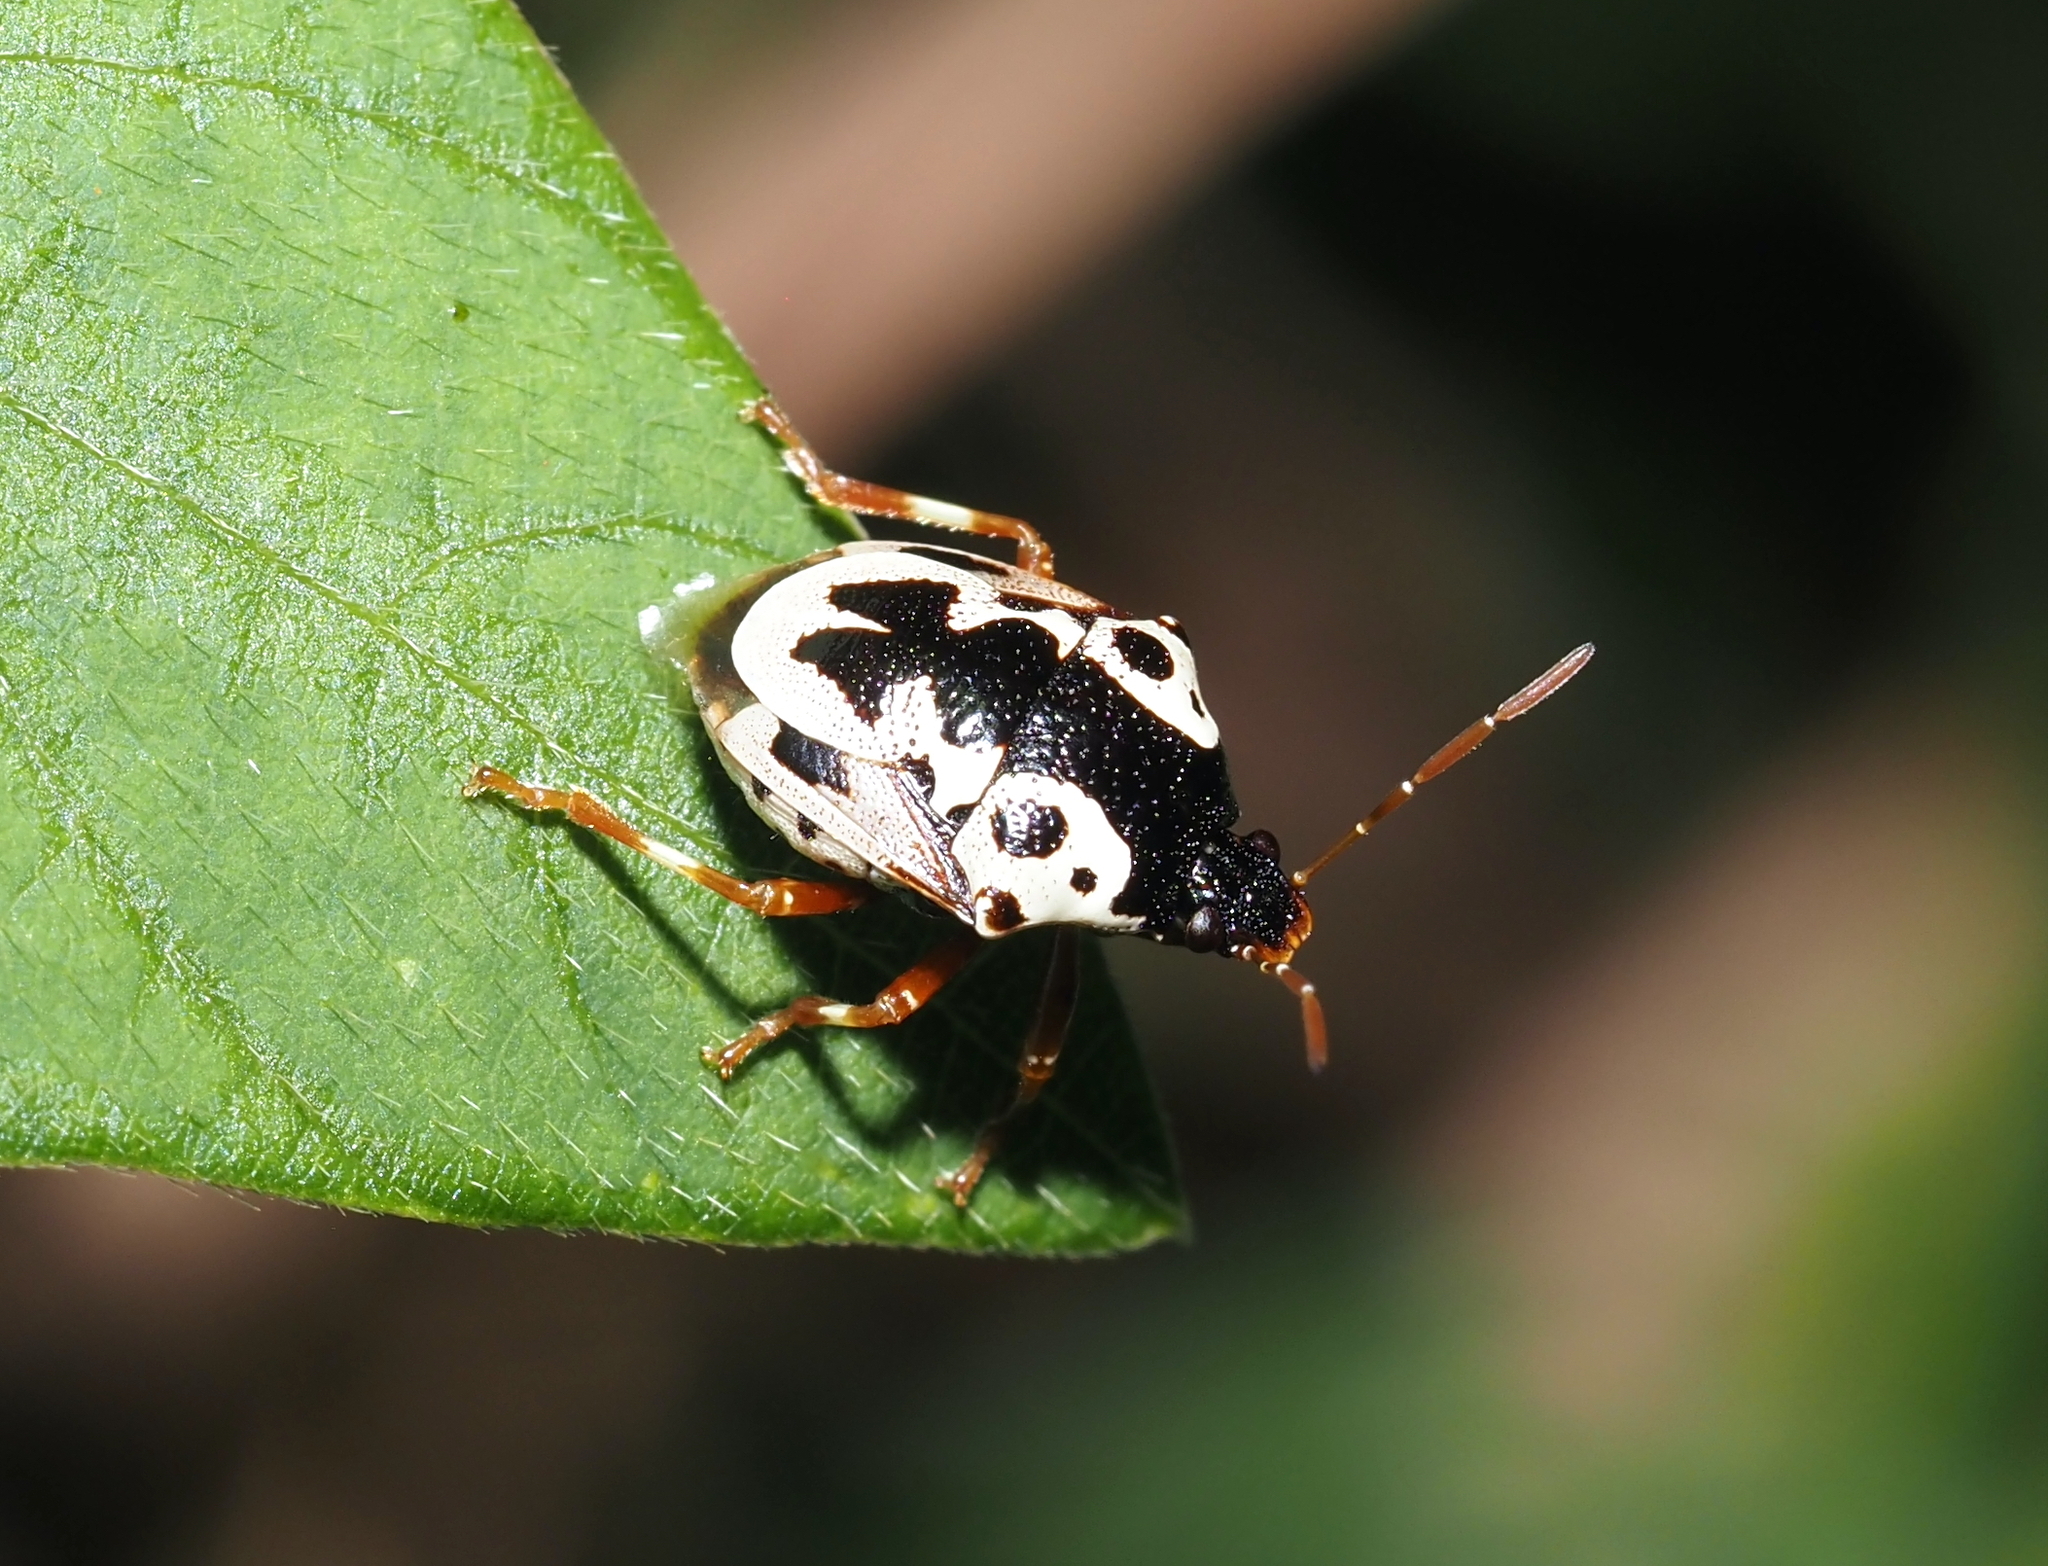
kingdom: Animalia
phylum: Arthropoda
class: Insecta
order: Hemiptera
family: Pentatomidae
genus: Stiretrus
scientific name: Stiretrus anchorago
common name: Anchor stink bug
